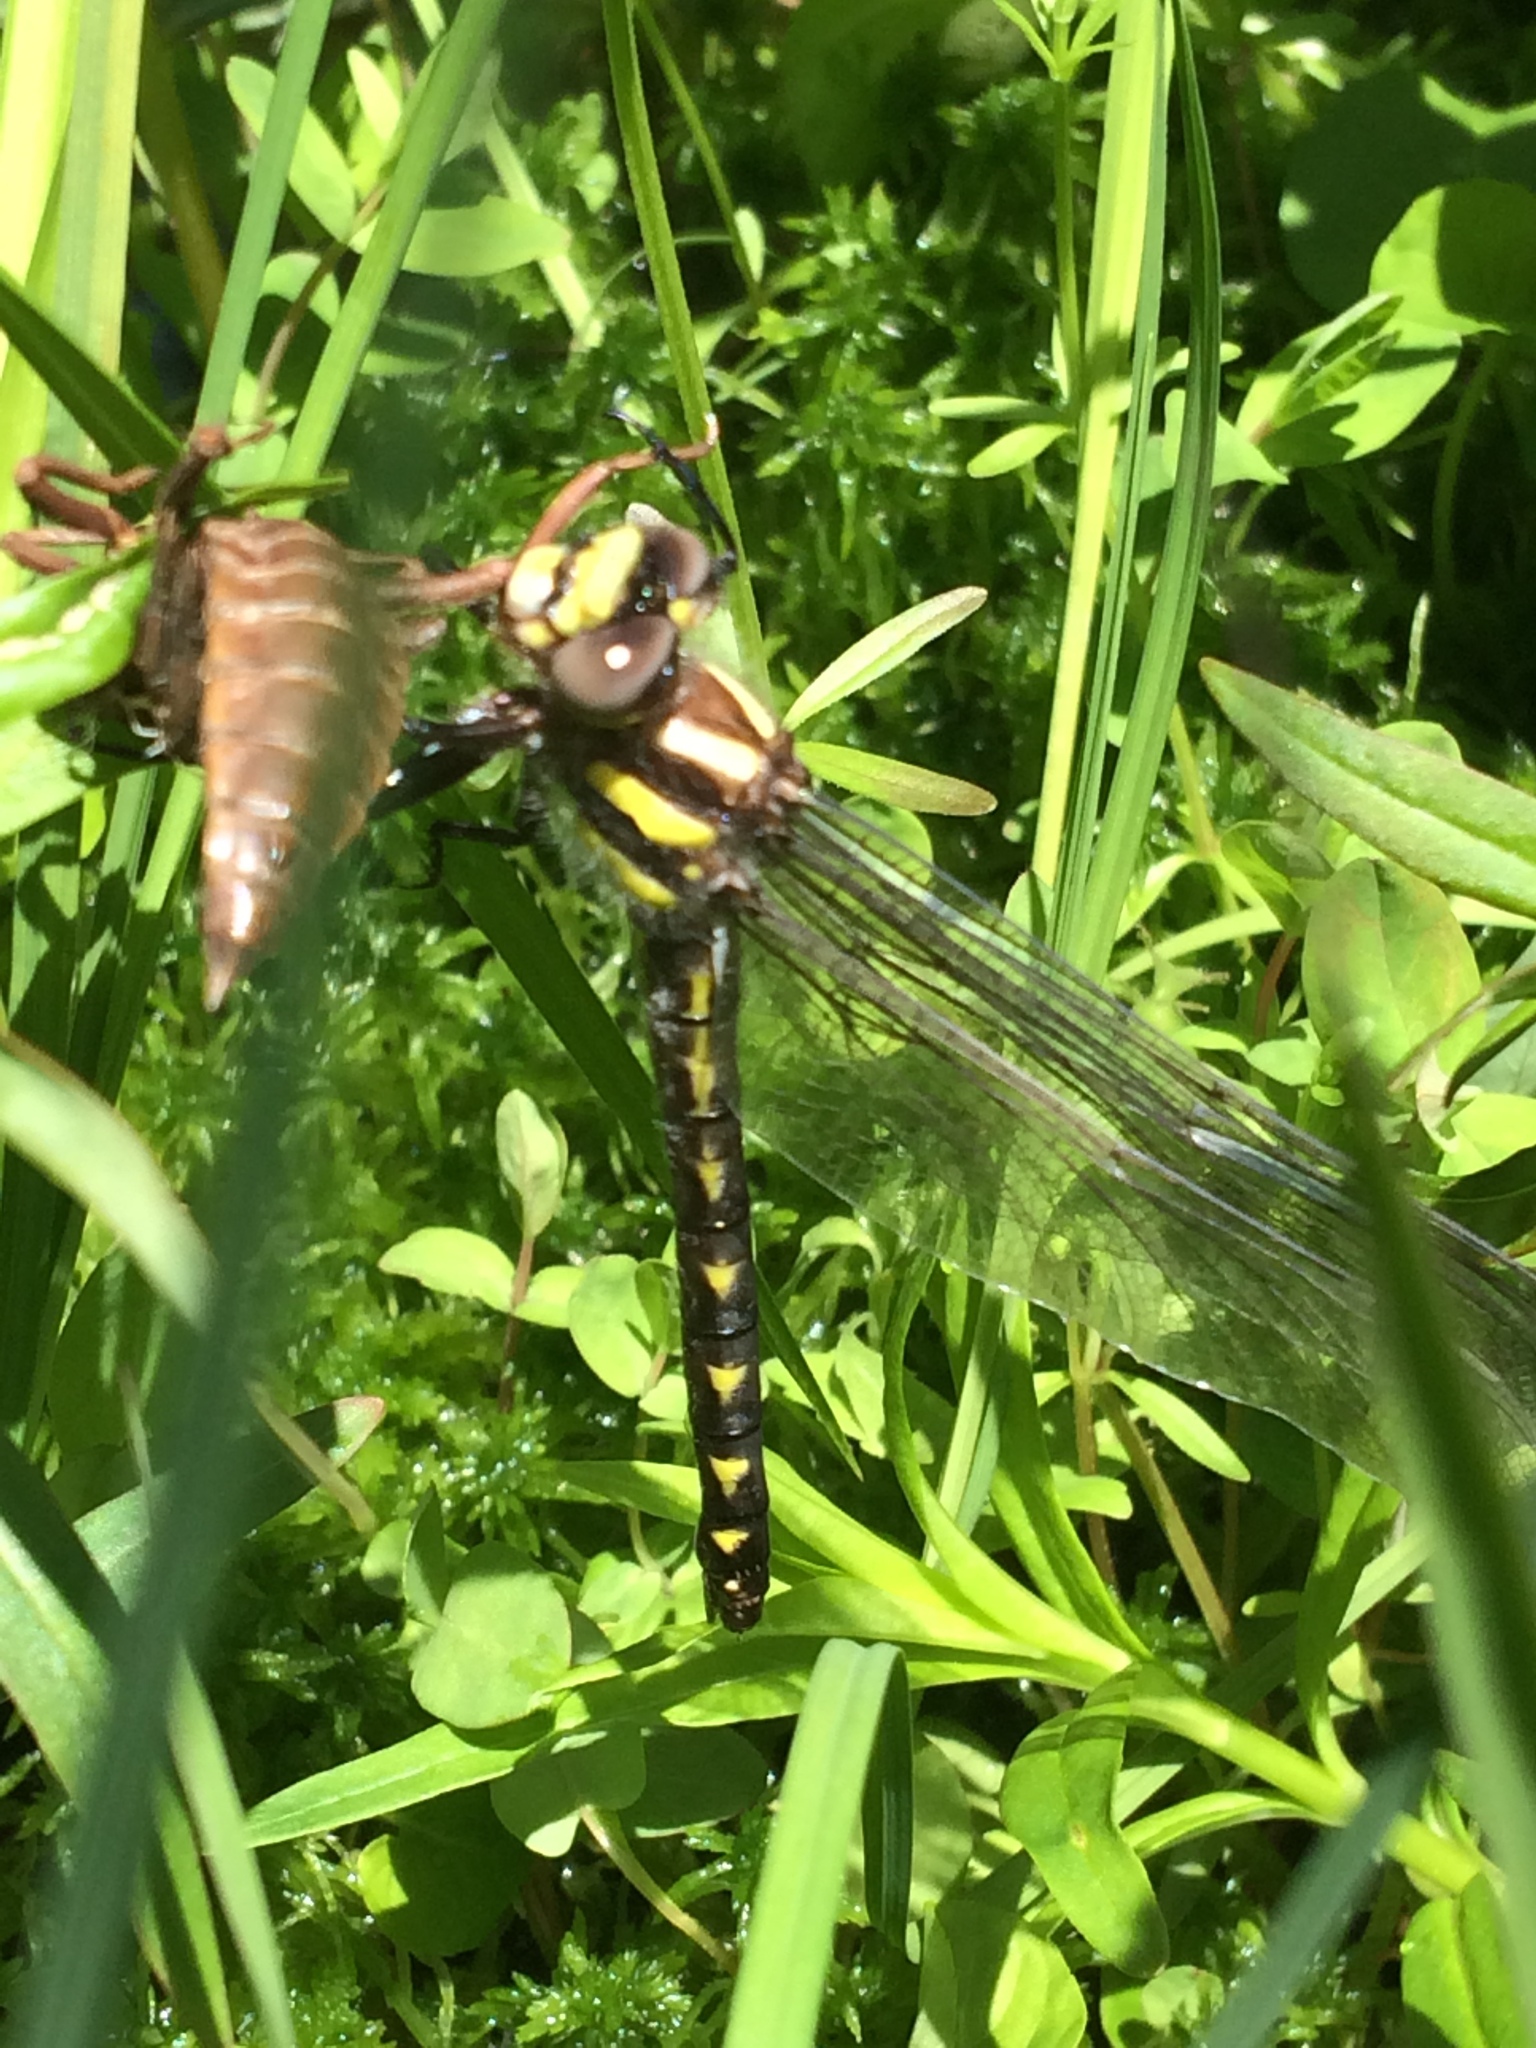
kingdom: Animalia
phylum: Arthropoda
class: Insecta
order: Odonata
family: Cordulegastridae
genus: Cordulegaster
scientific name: Cordulegaster diastatops
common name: Delta-spotted spiketail
